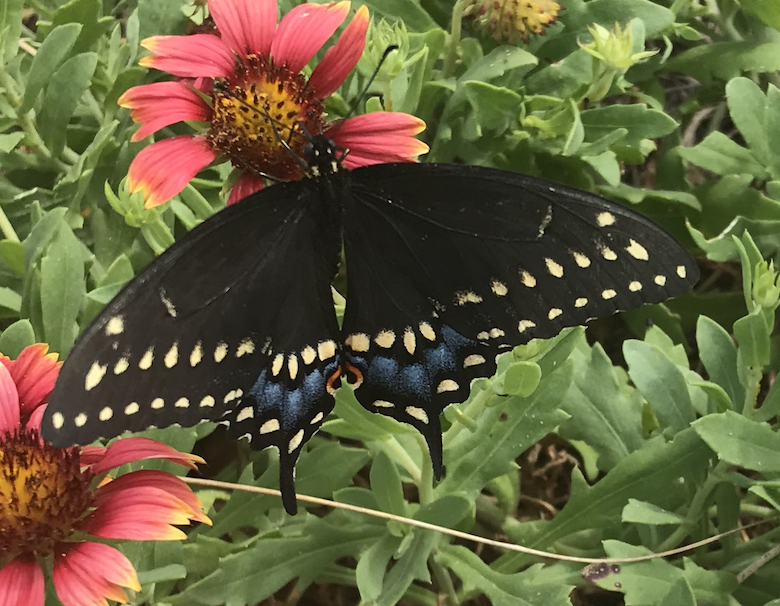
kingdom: Animalia
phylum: Arthropoda
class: Insecta
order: Lepidoptera
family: Papilionidae
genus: Papilio
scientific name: Papilio polyxenes
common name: Black swallowtail
